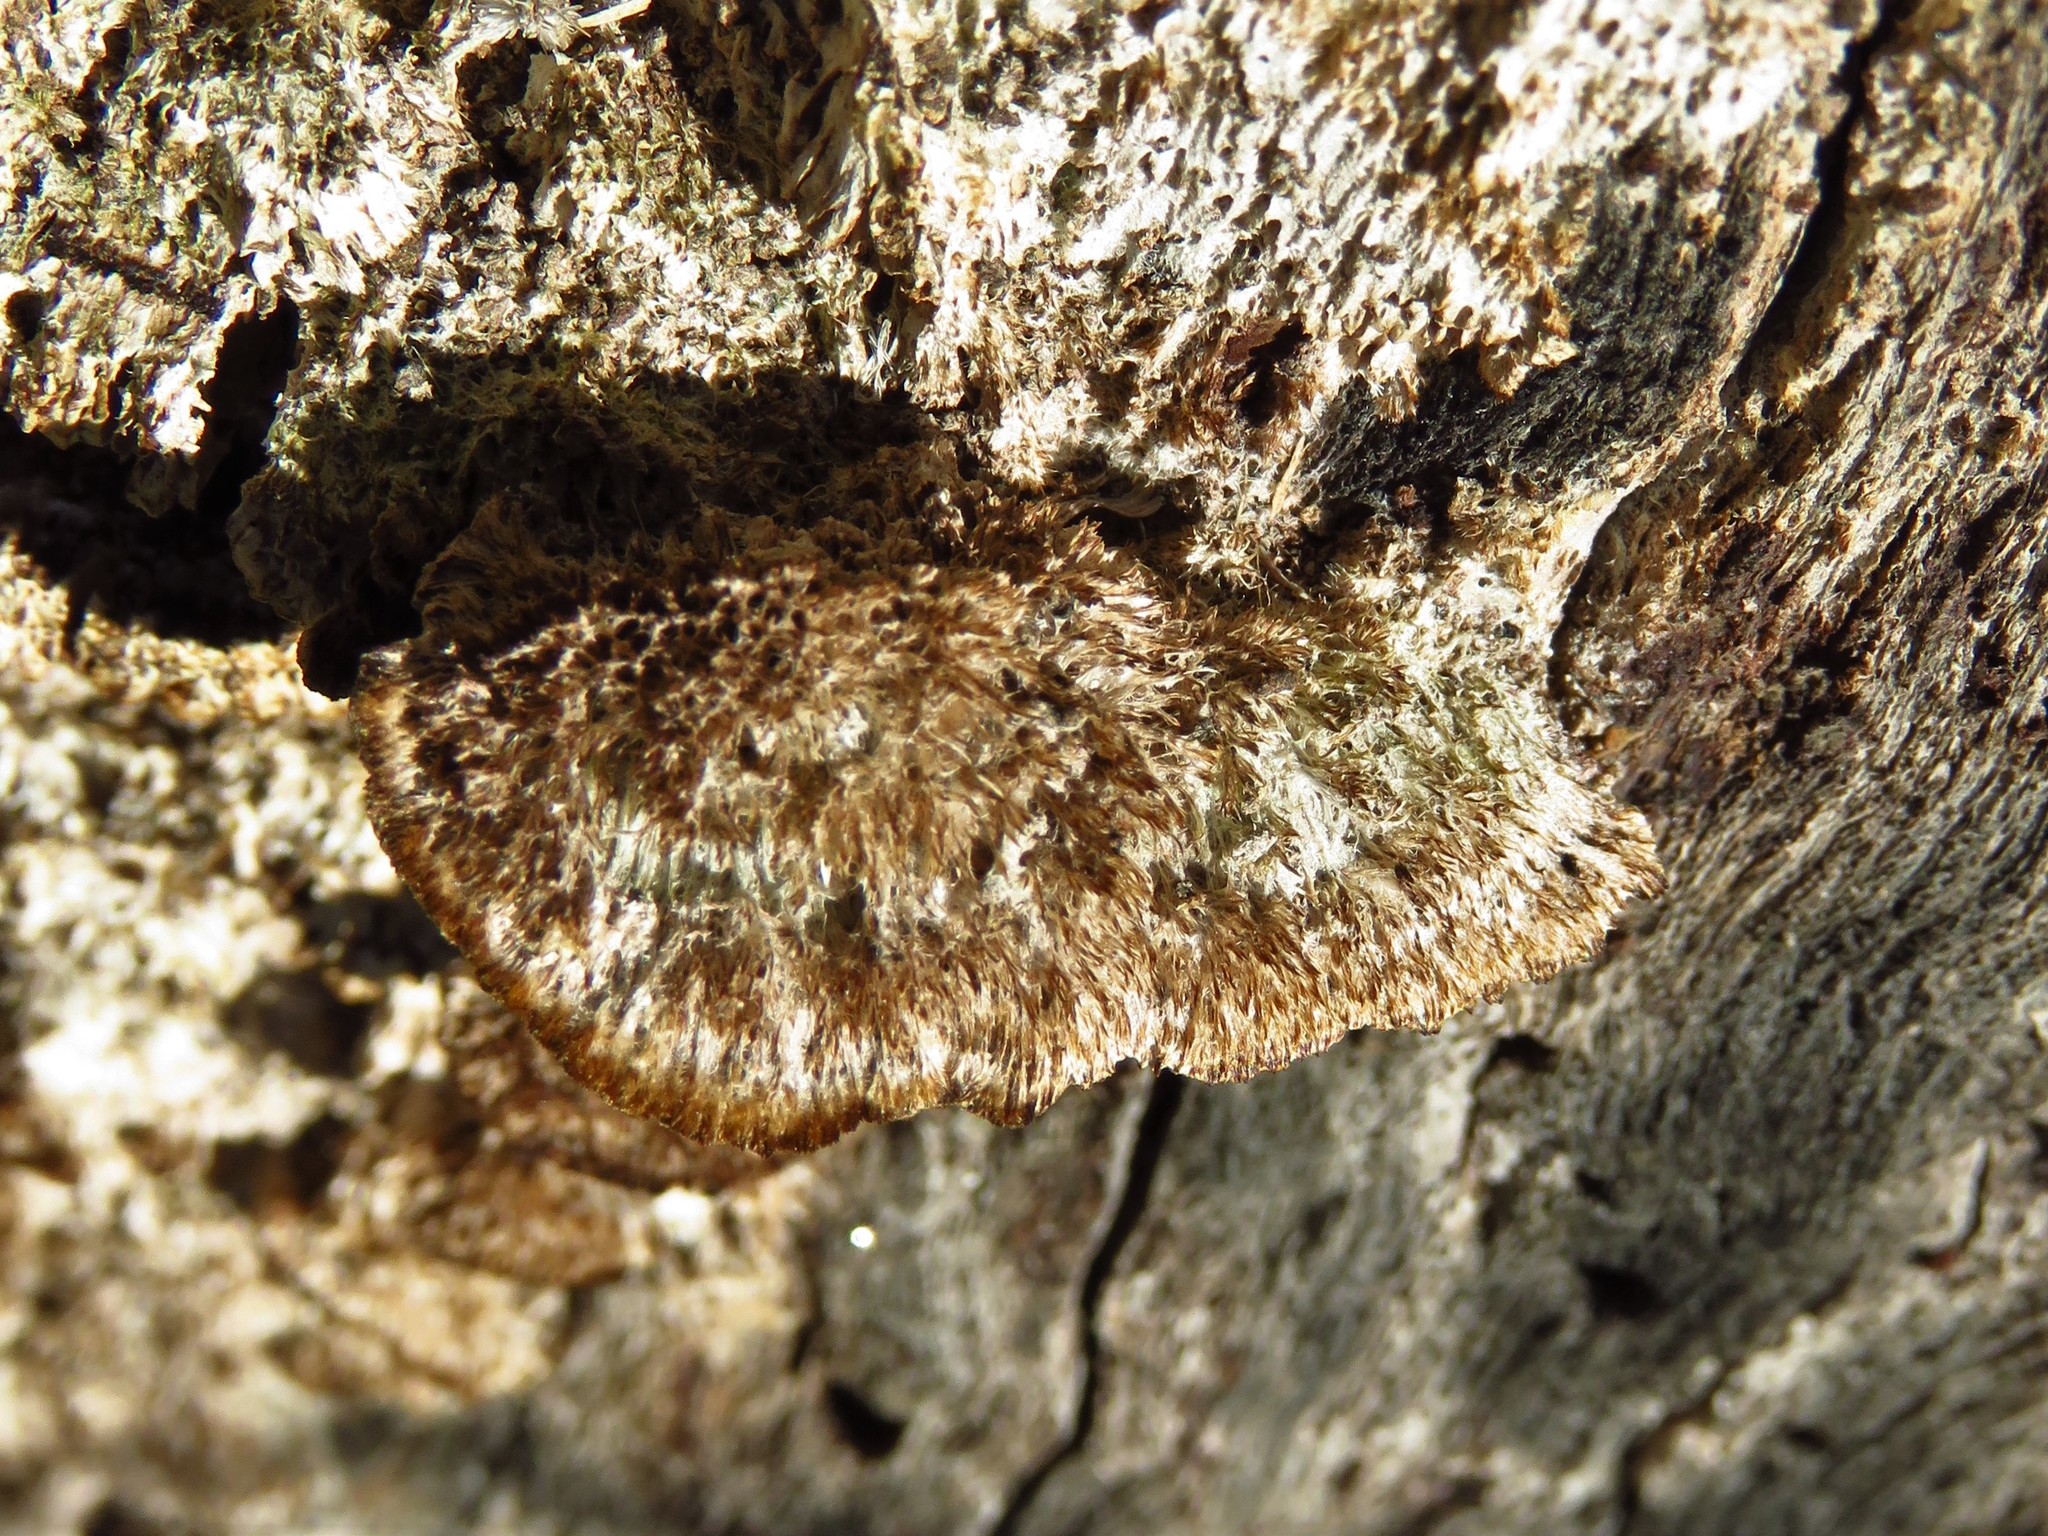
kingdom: Fungi
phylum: Basidiomycota
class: Agaricomycetes
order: Polyporales
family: Cerrenaceae
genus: Cerrena
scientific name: Cerrena hydnoides
